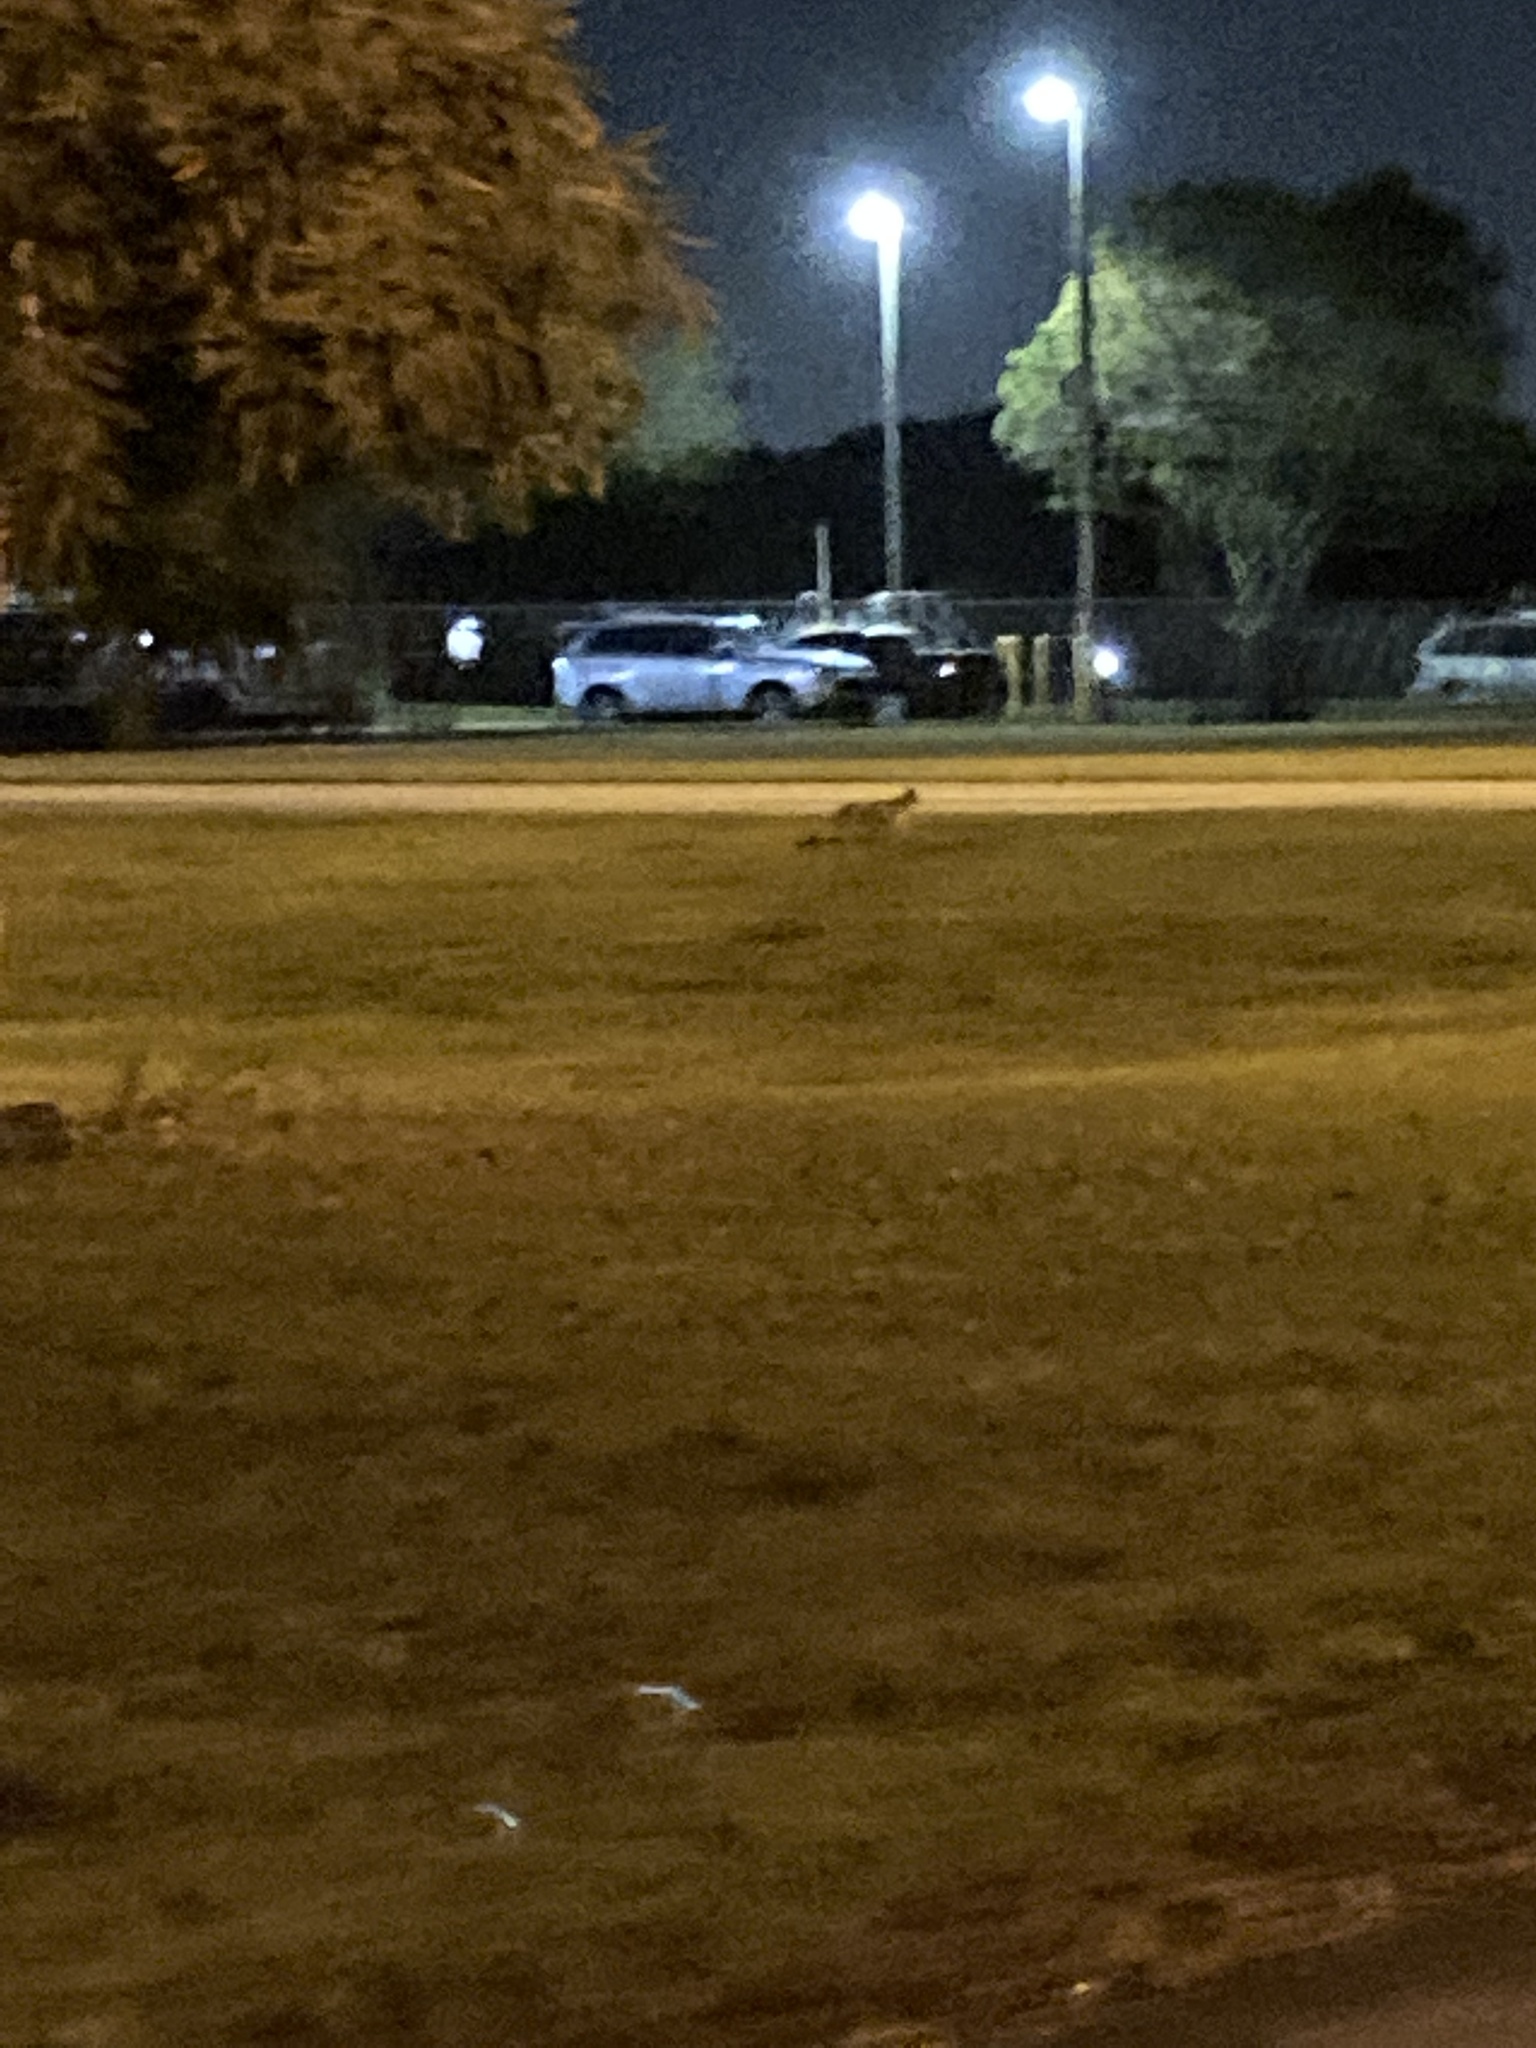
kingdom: Animalia
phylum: Chordata
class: Mammalia
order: Carnivora
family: Canidae
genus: Urocyon
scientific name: Urocyon cinereoargenteus
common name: Gray fox
